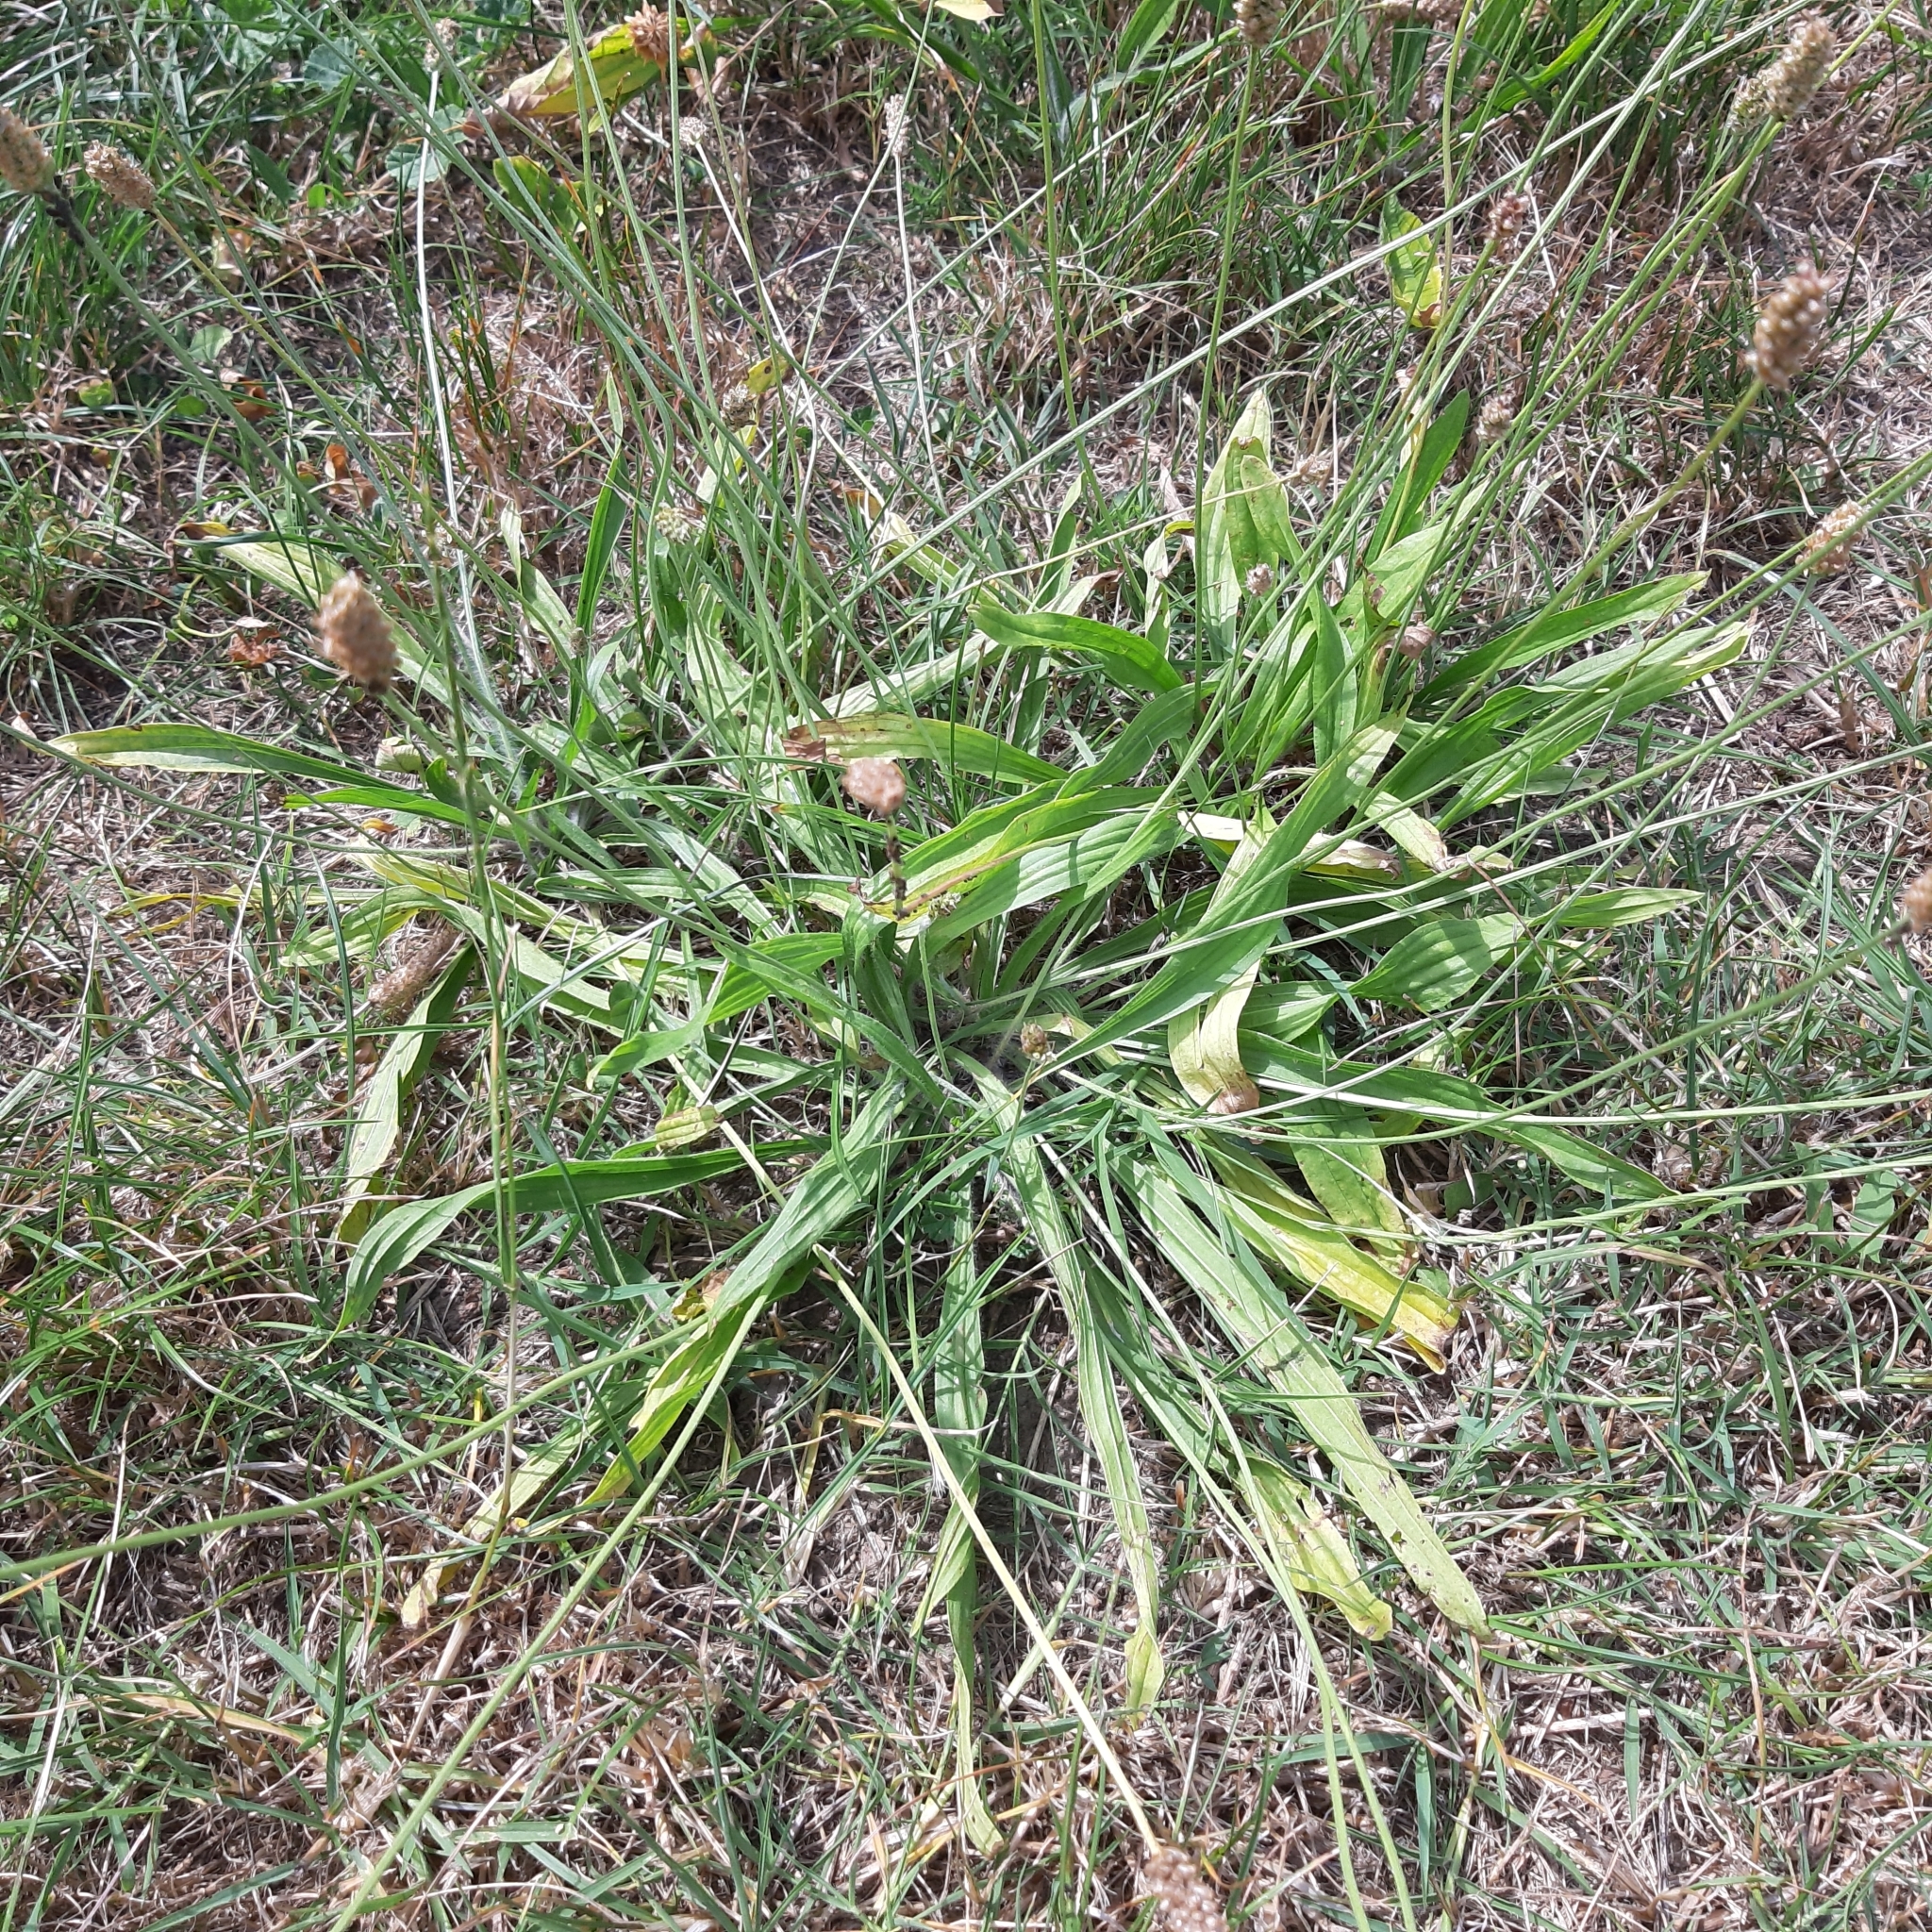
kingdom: Plantae
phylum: Tracheophyta
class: Magnoliopsida
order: Lamiales
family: Plantaginaceae
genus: Plantago
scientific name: Plantago lanceolata
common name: Ribwort plantain
